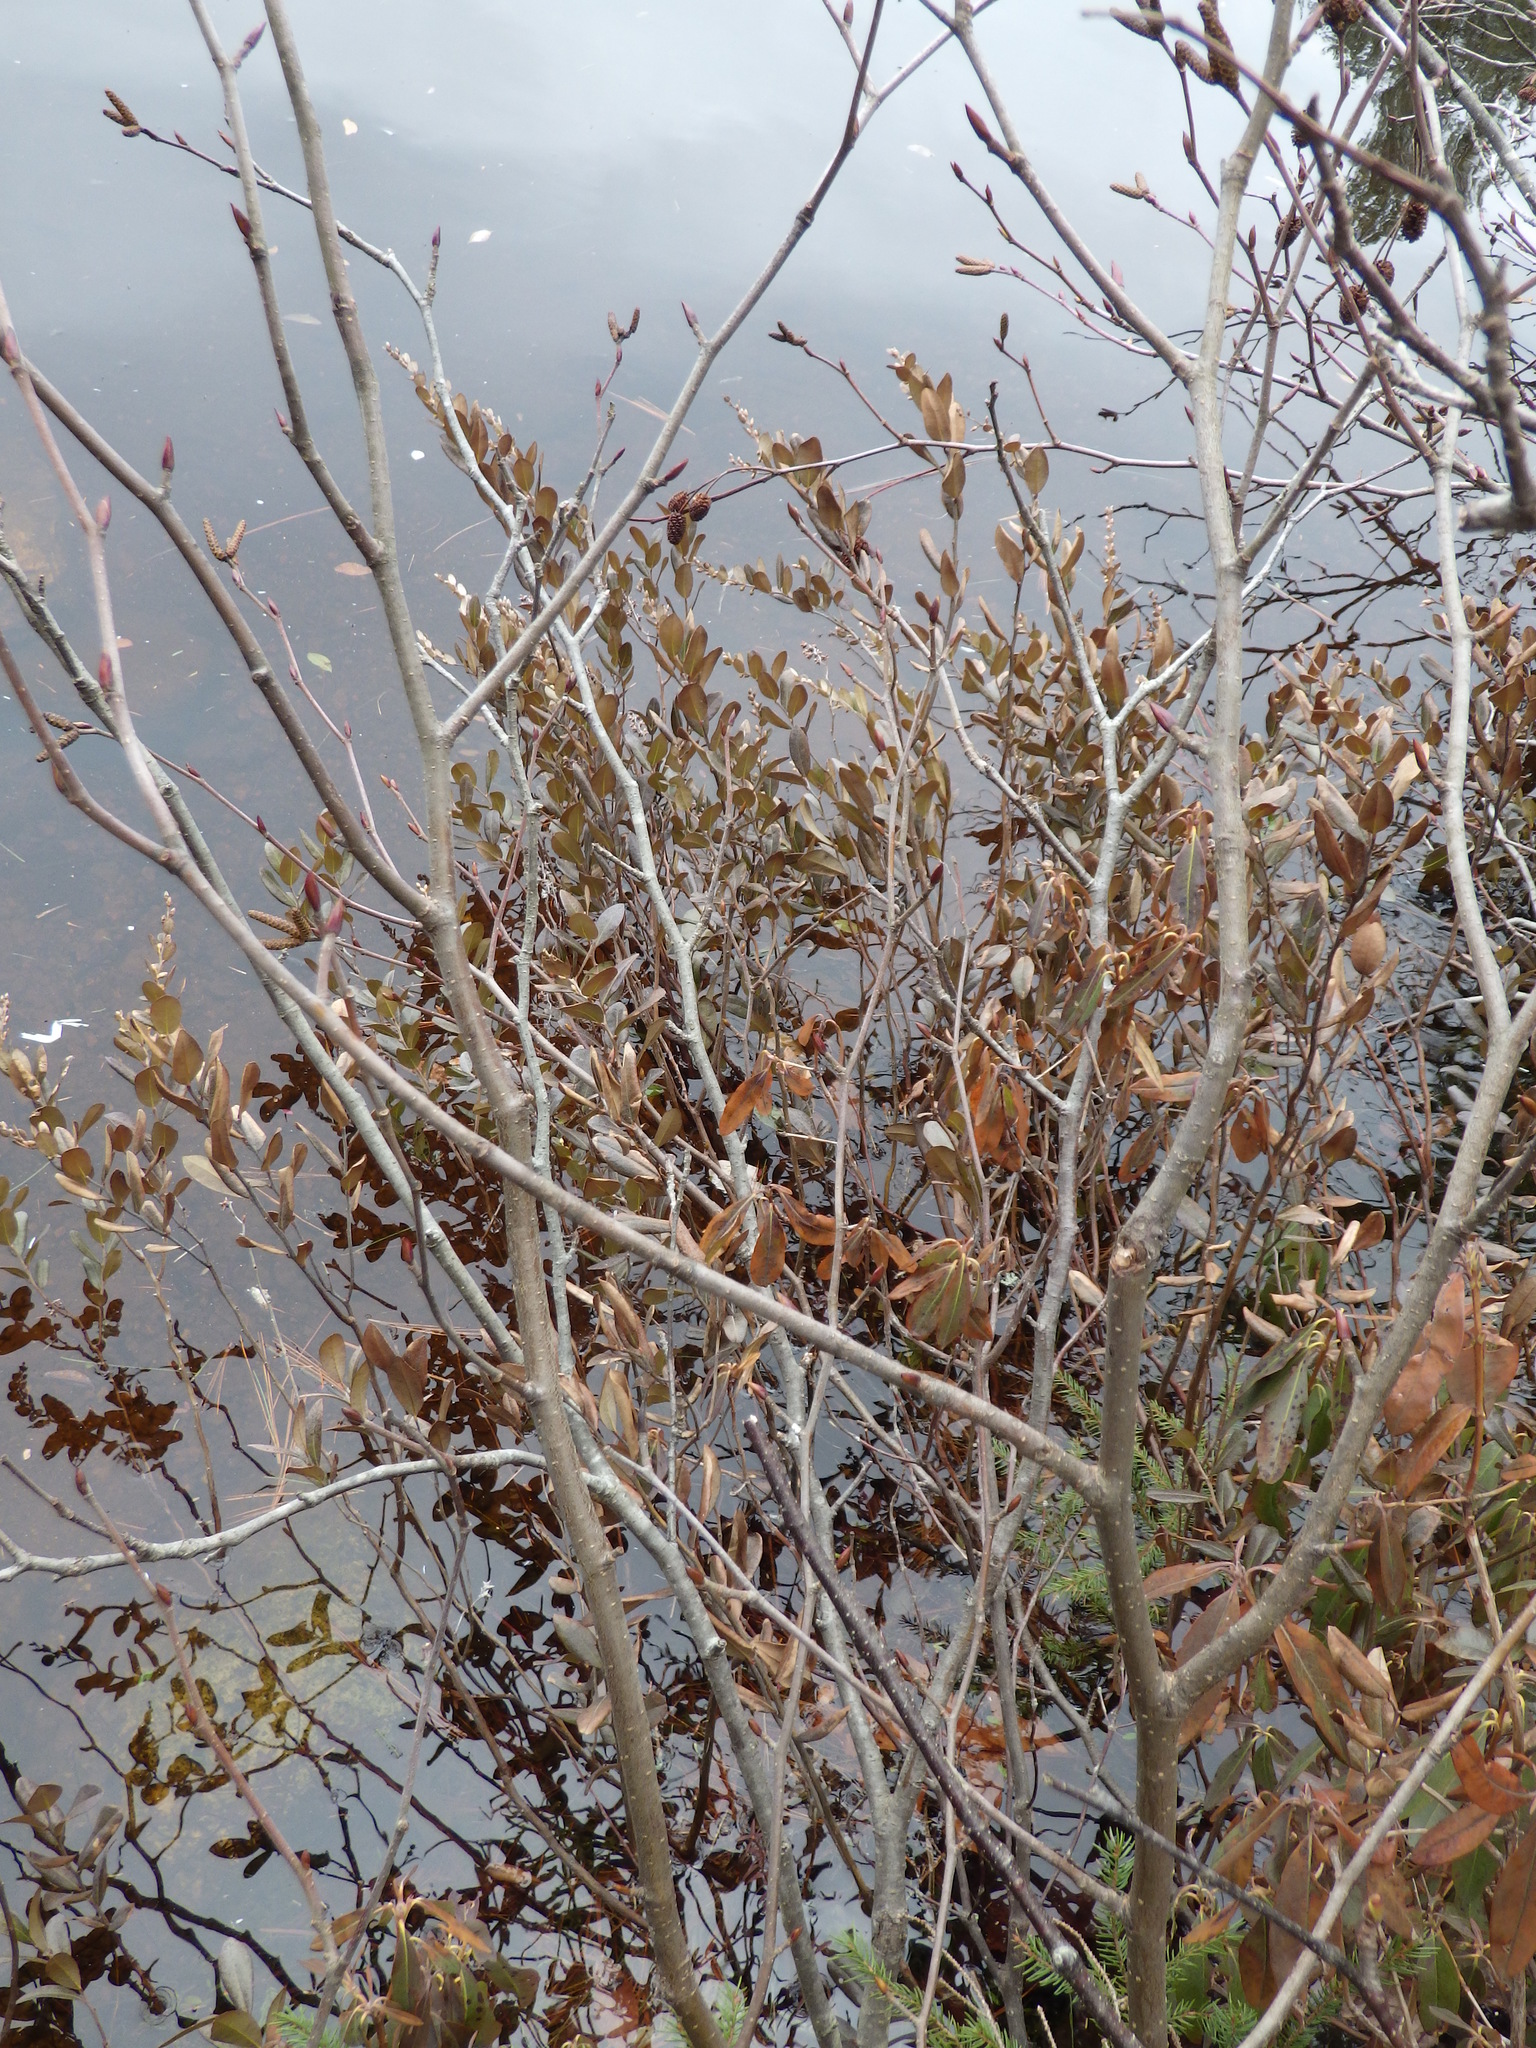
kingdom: Plantae
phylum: Tracheophyta
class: Magnoliopsida
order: Ericales
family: Ericaceae
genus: Chamaedaphne
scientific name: Chamaedaphne calyculata
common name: Leatherleaf
